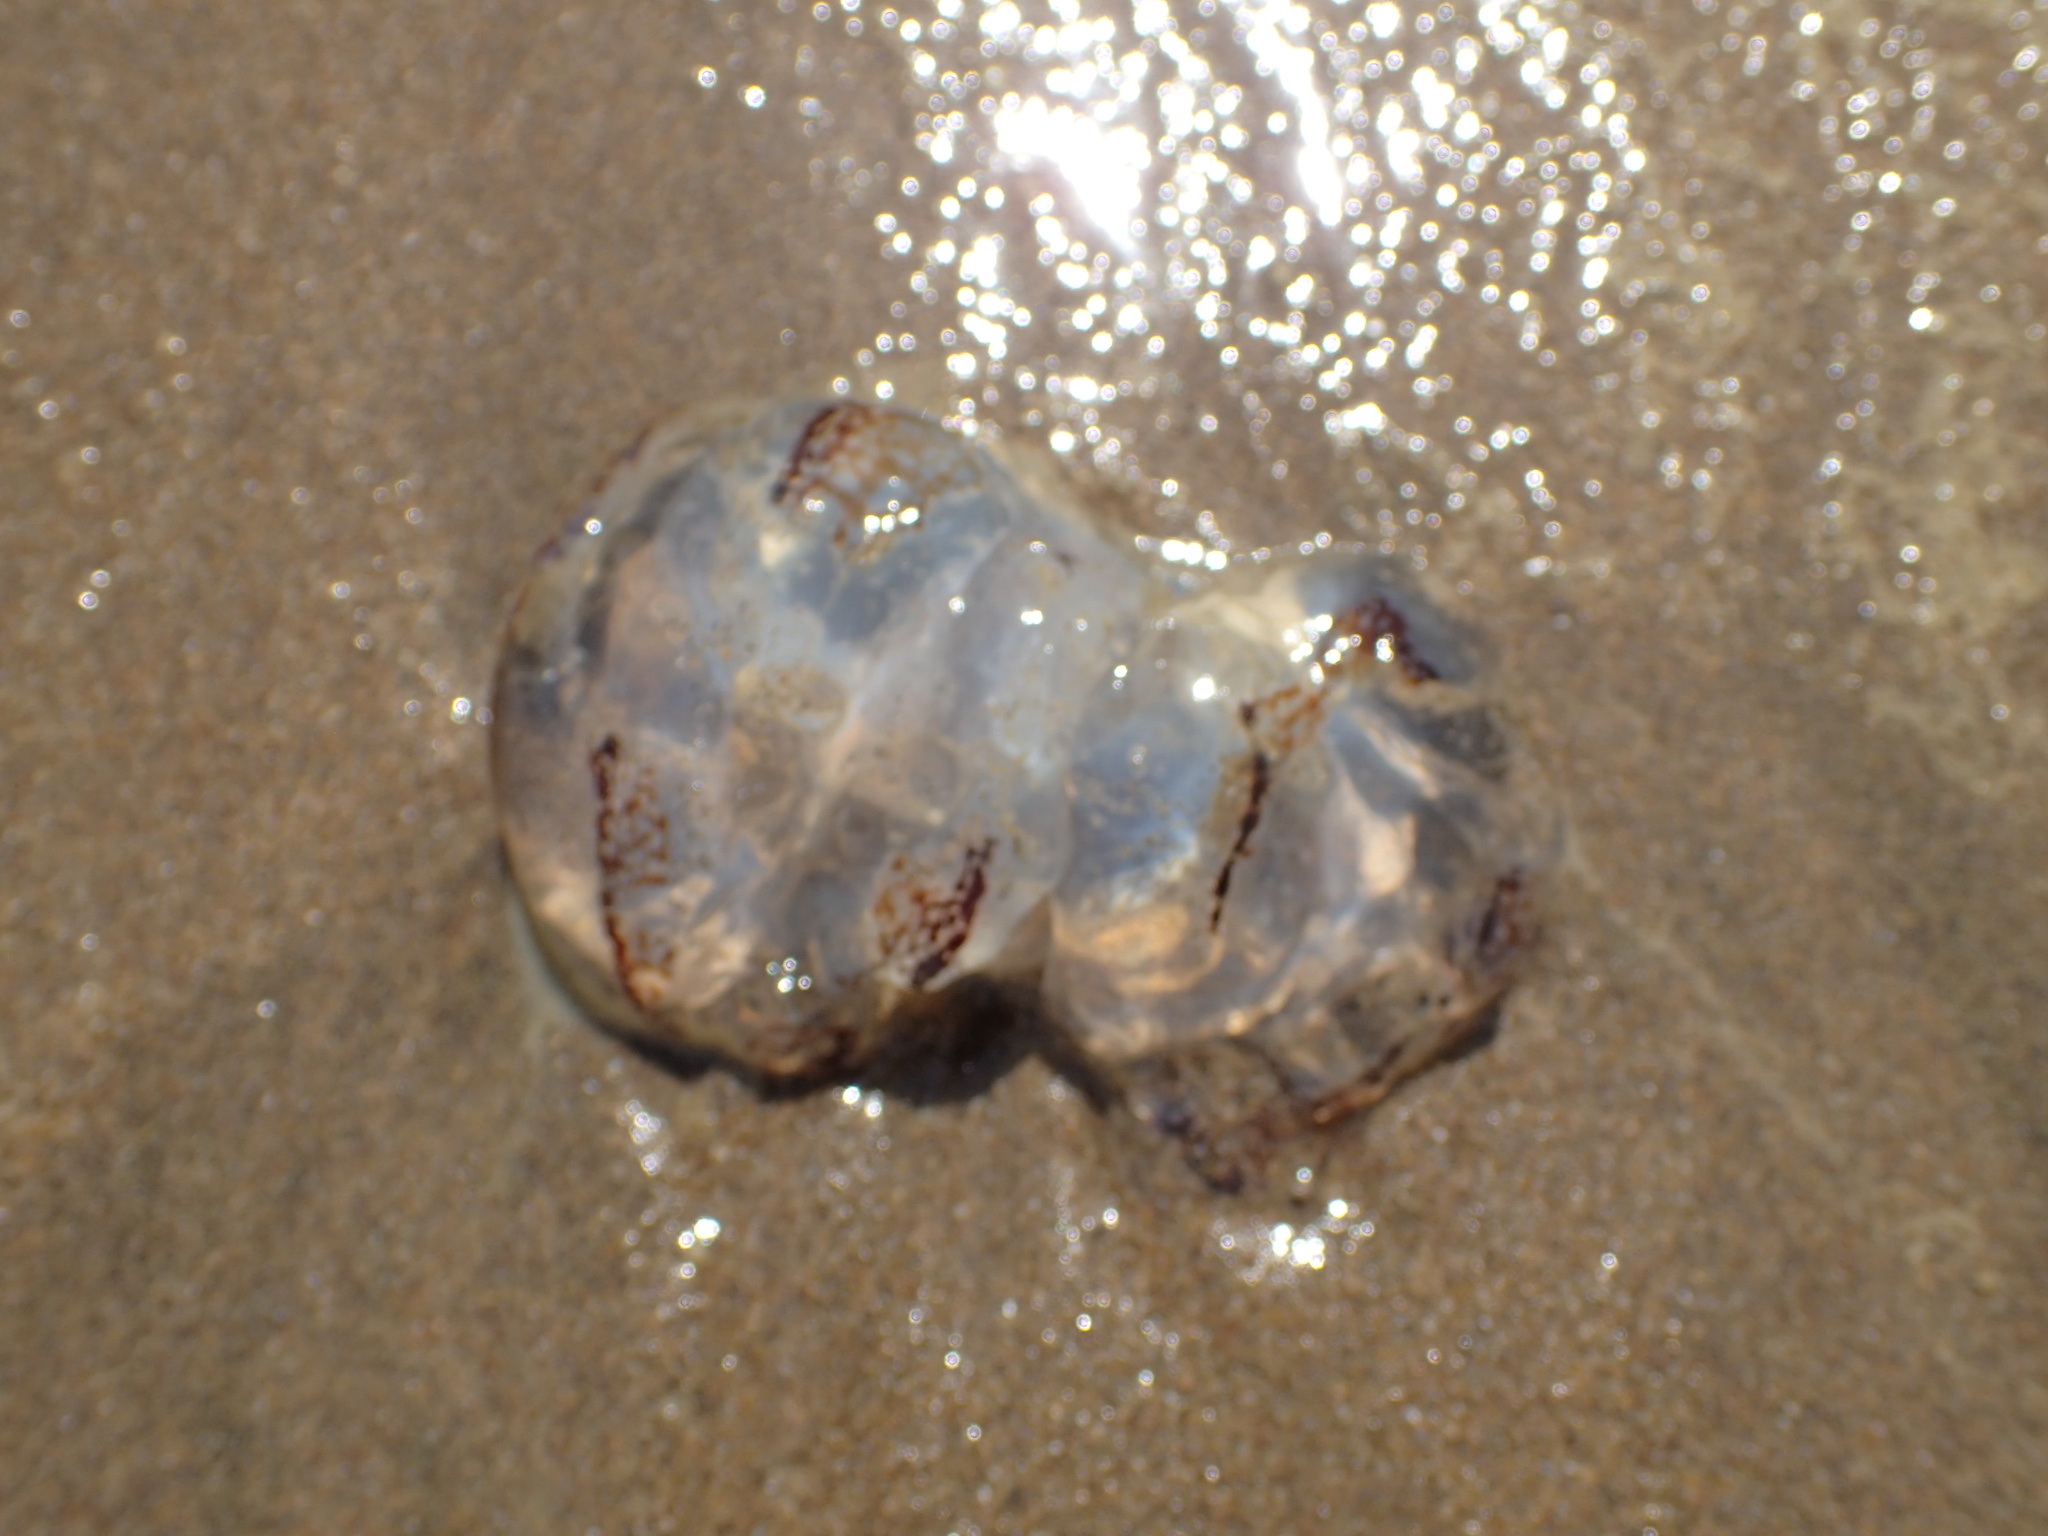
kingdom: Animalia
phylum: Cnidaria
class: Scyphozoa
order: Semaeostomeae
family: Pelagiidae
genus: Chrysaora
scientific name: Chrysaora plocamia
